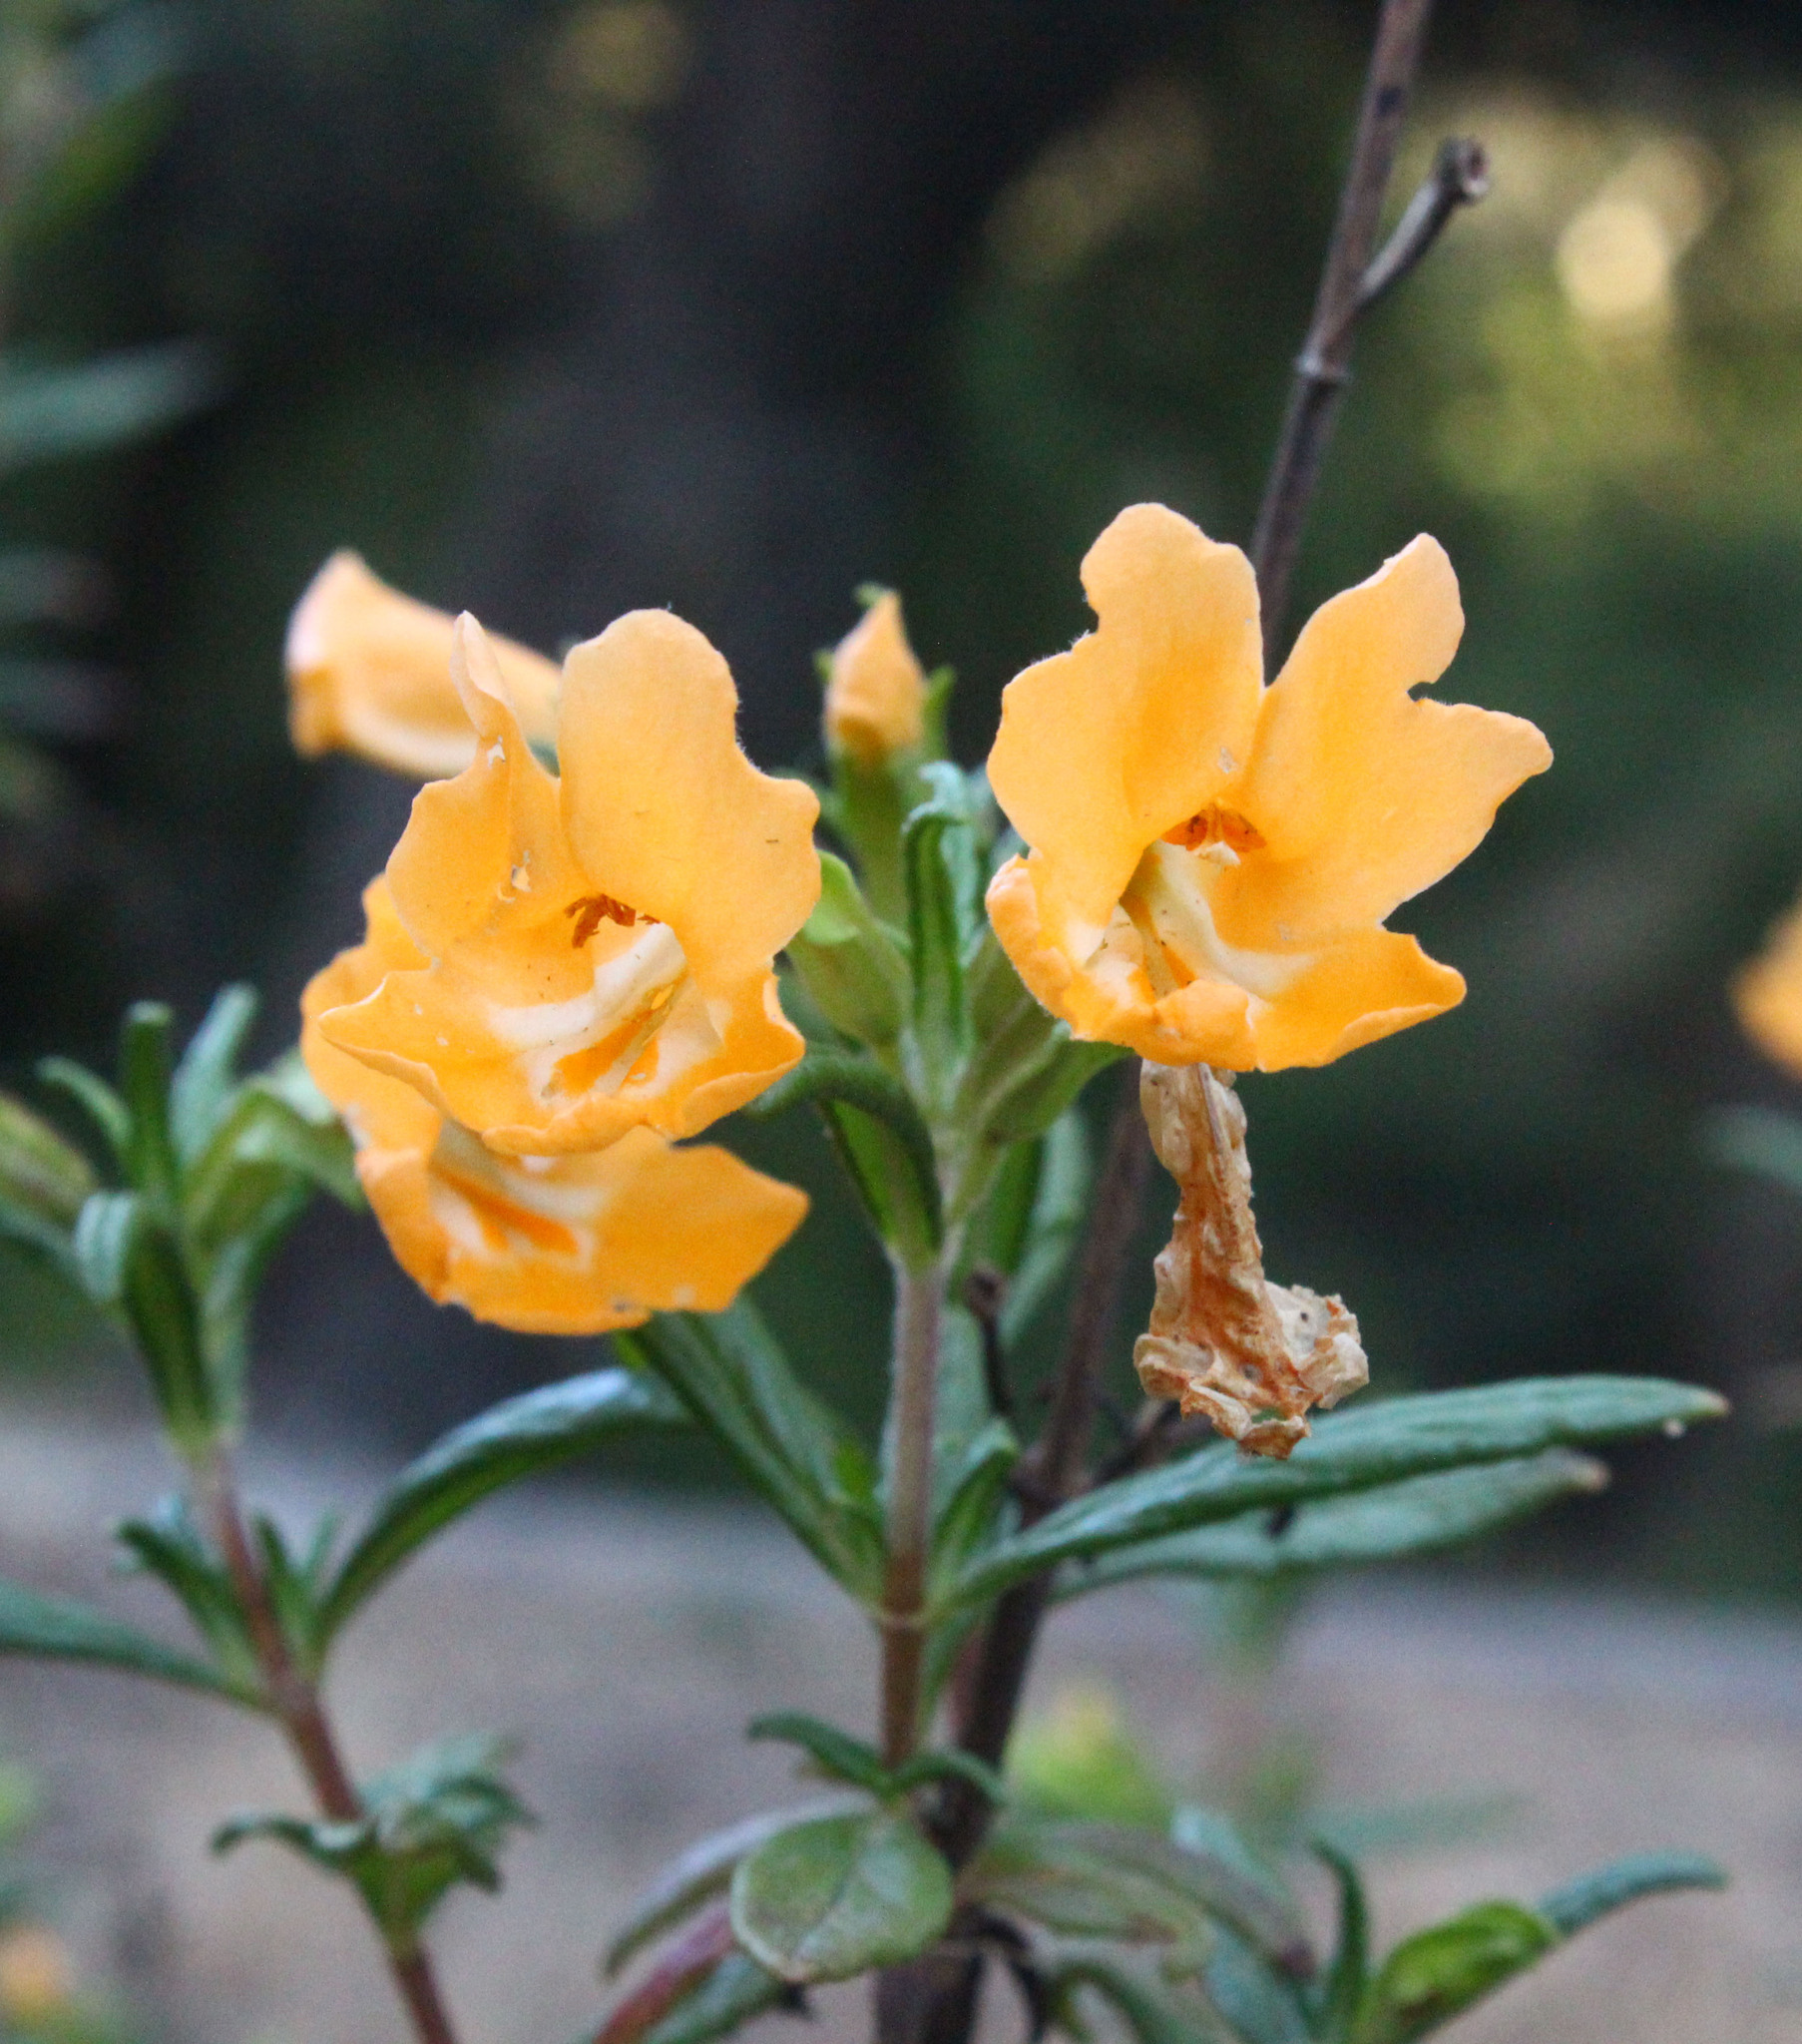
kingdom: Plantae
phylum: Tracheophyta
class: Magnoliopsida
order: Lamiales
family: Phrymaceae
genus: Diplacus
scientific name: Diplacus aurantiacus
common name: Bush monkey-flower
